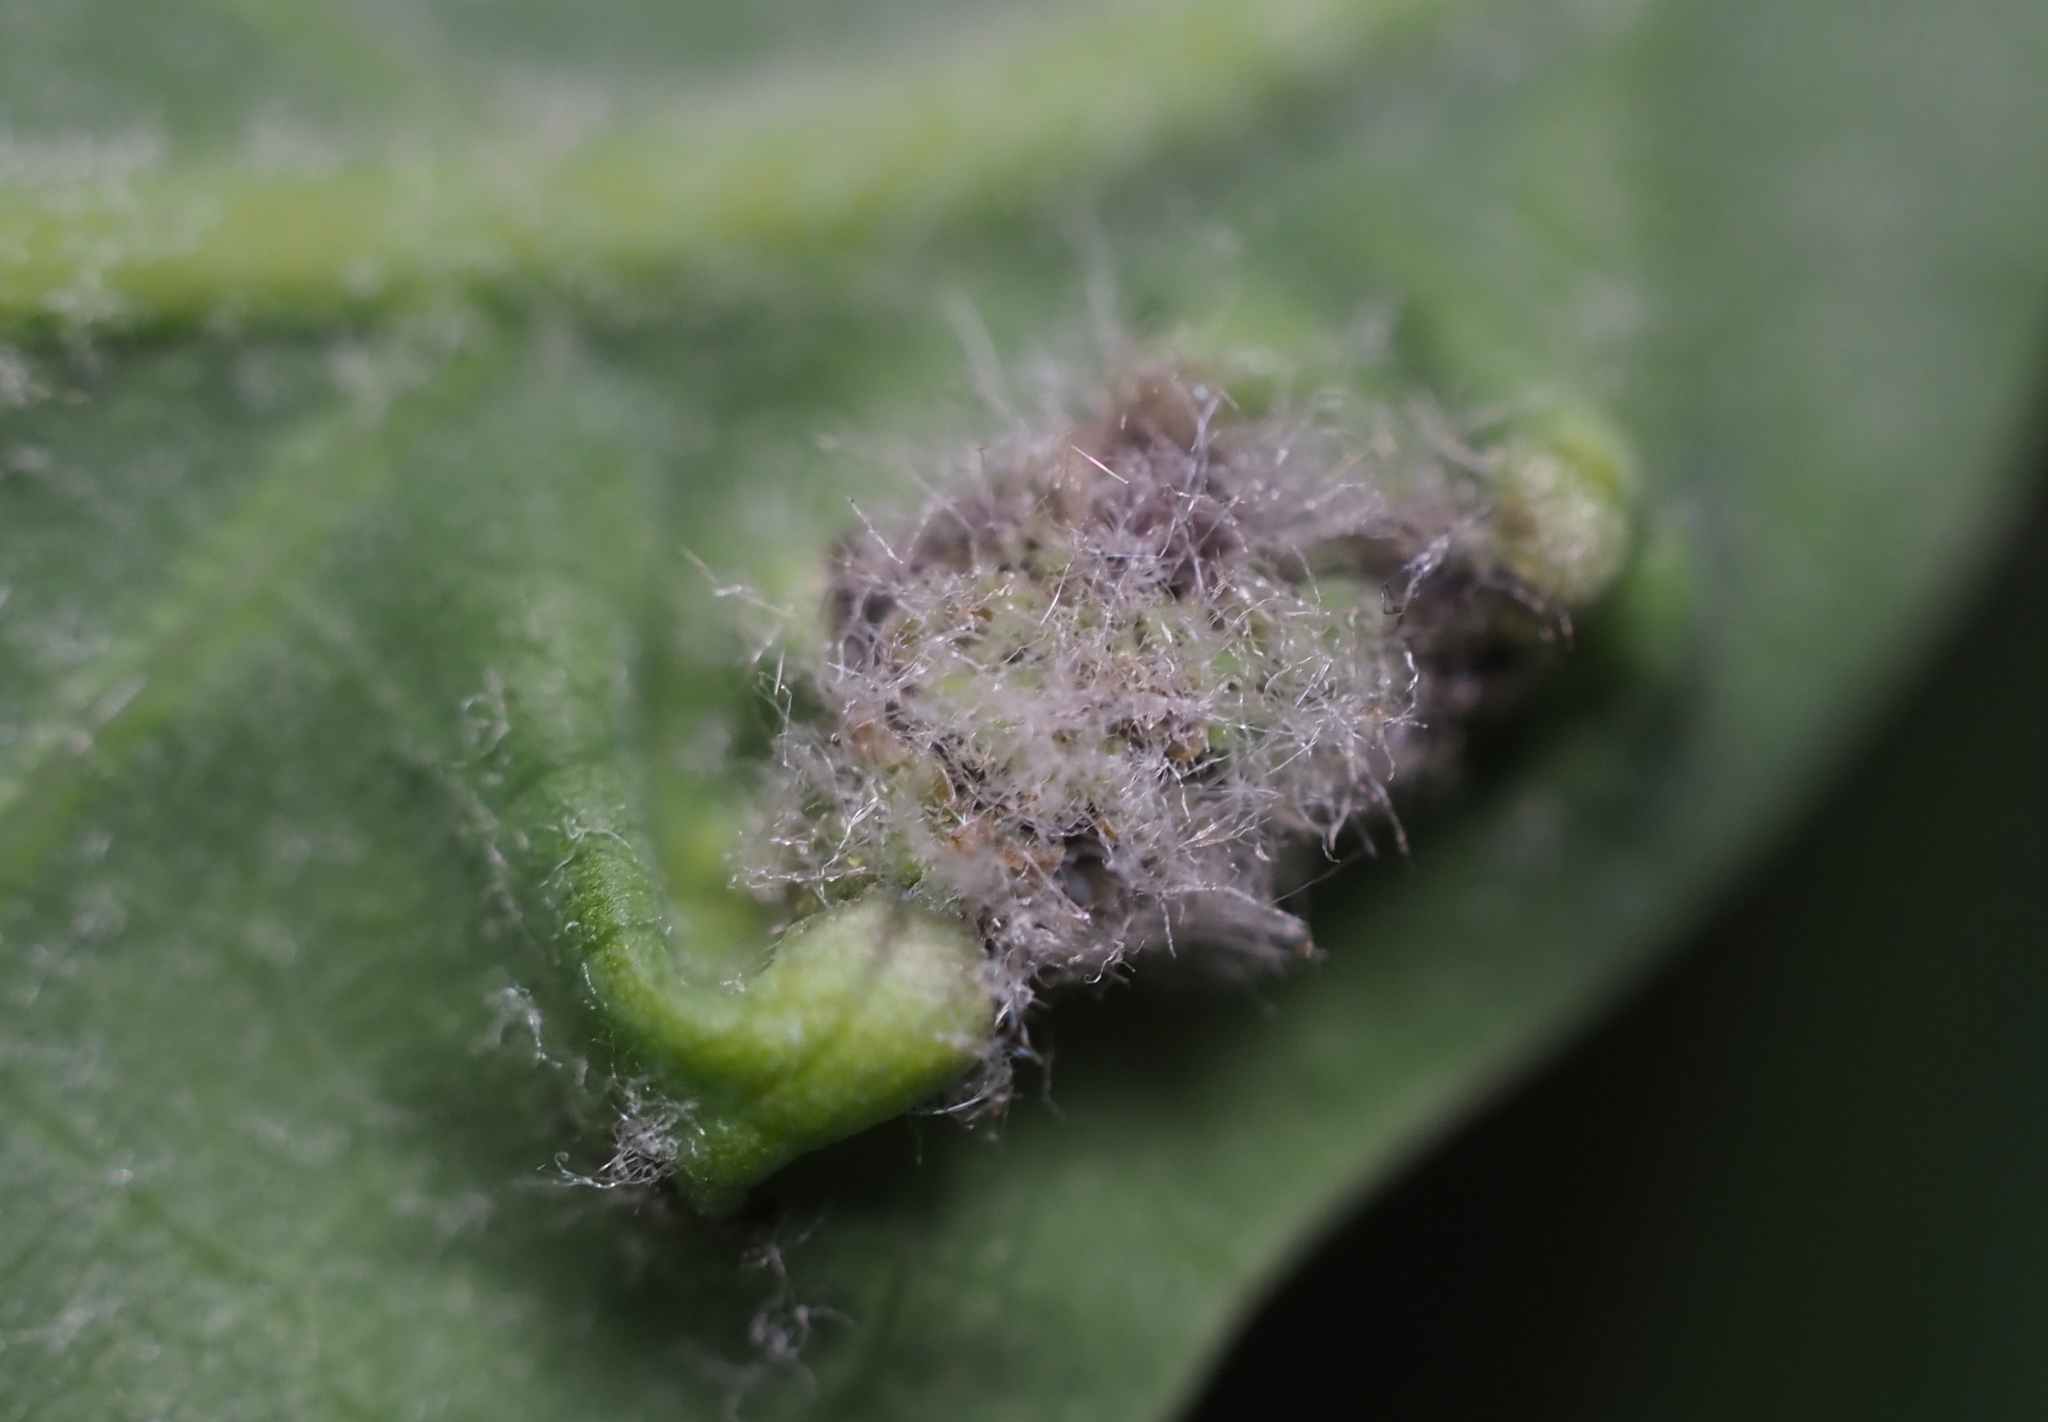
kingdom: Animalia
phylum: Arthropoda
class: Insecta
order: Diptera
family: Cecidomyiidae
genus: Macrodiplosis
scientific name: Macrodiplosis niveipila
